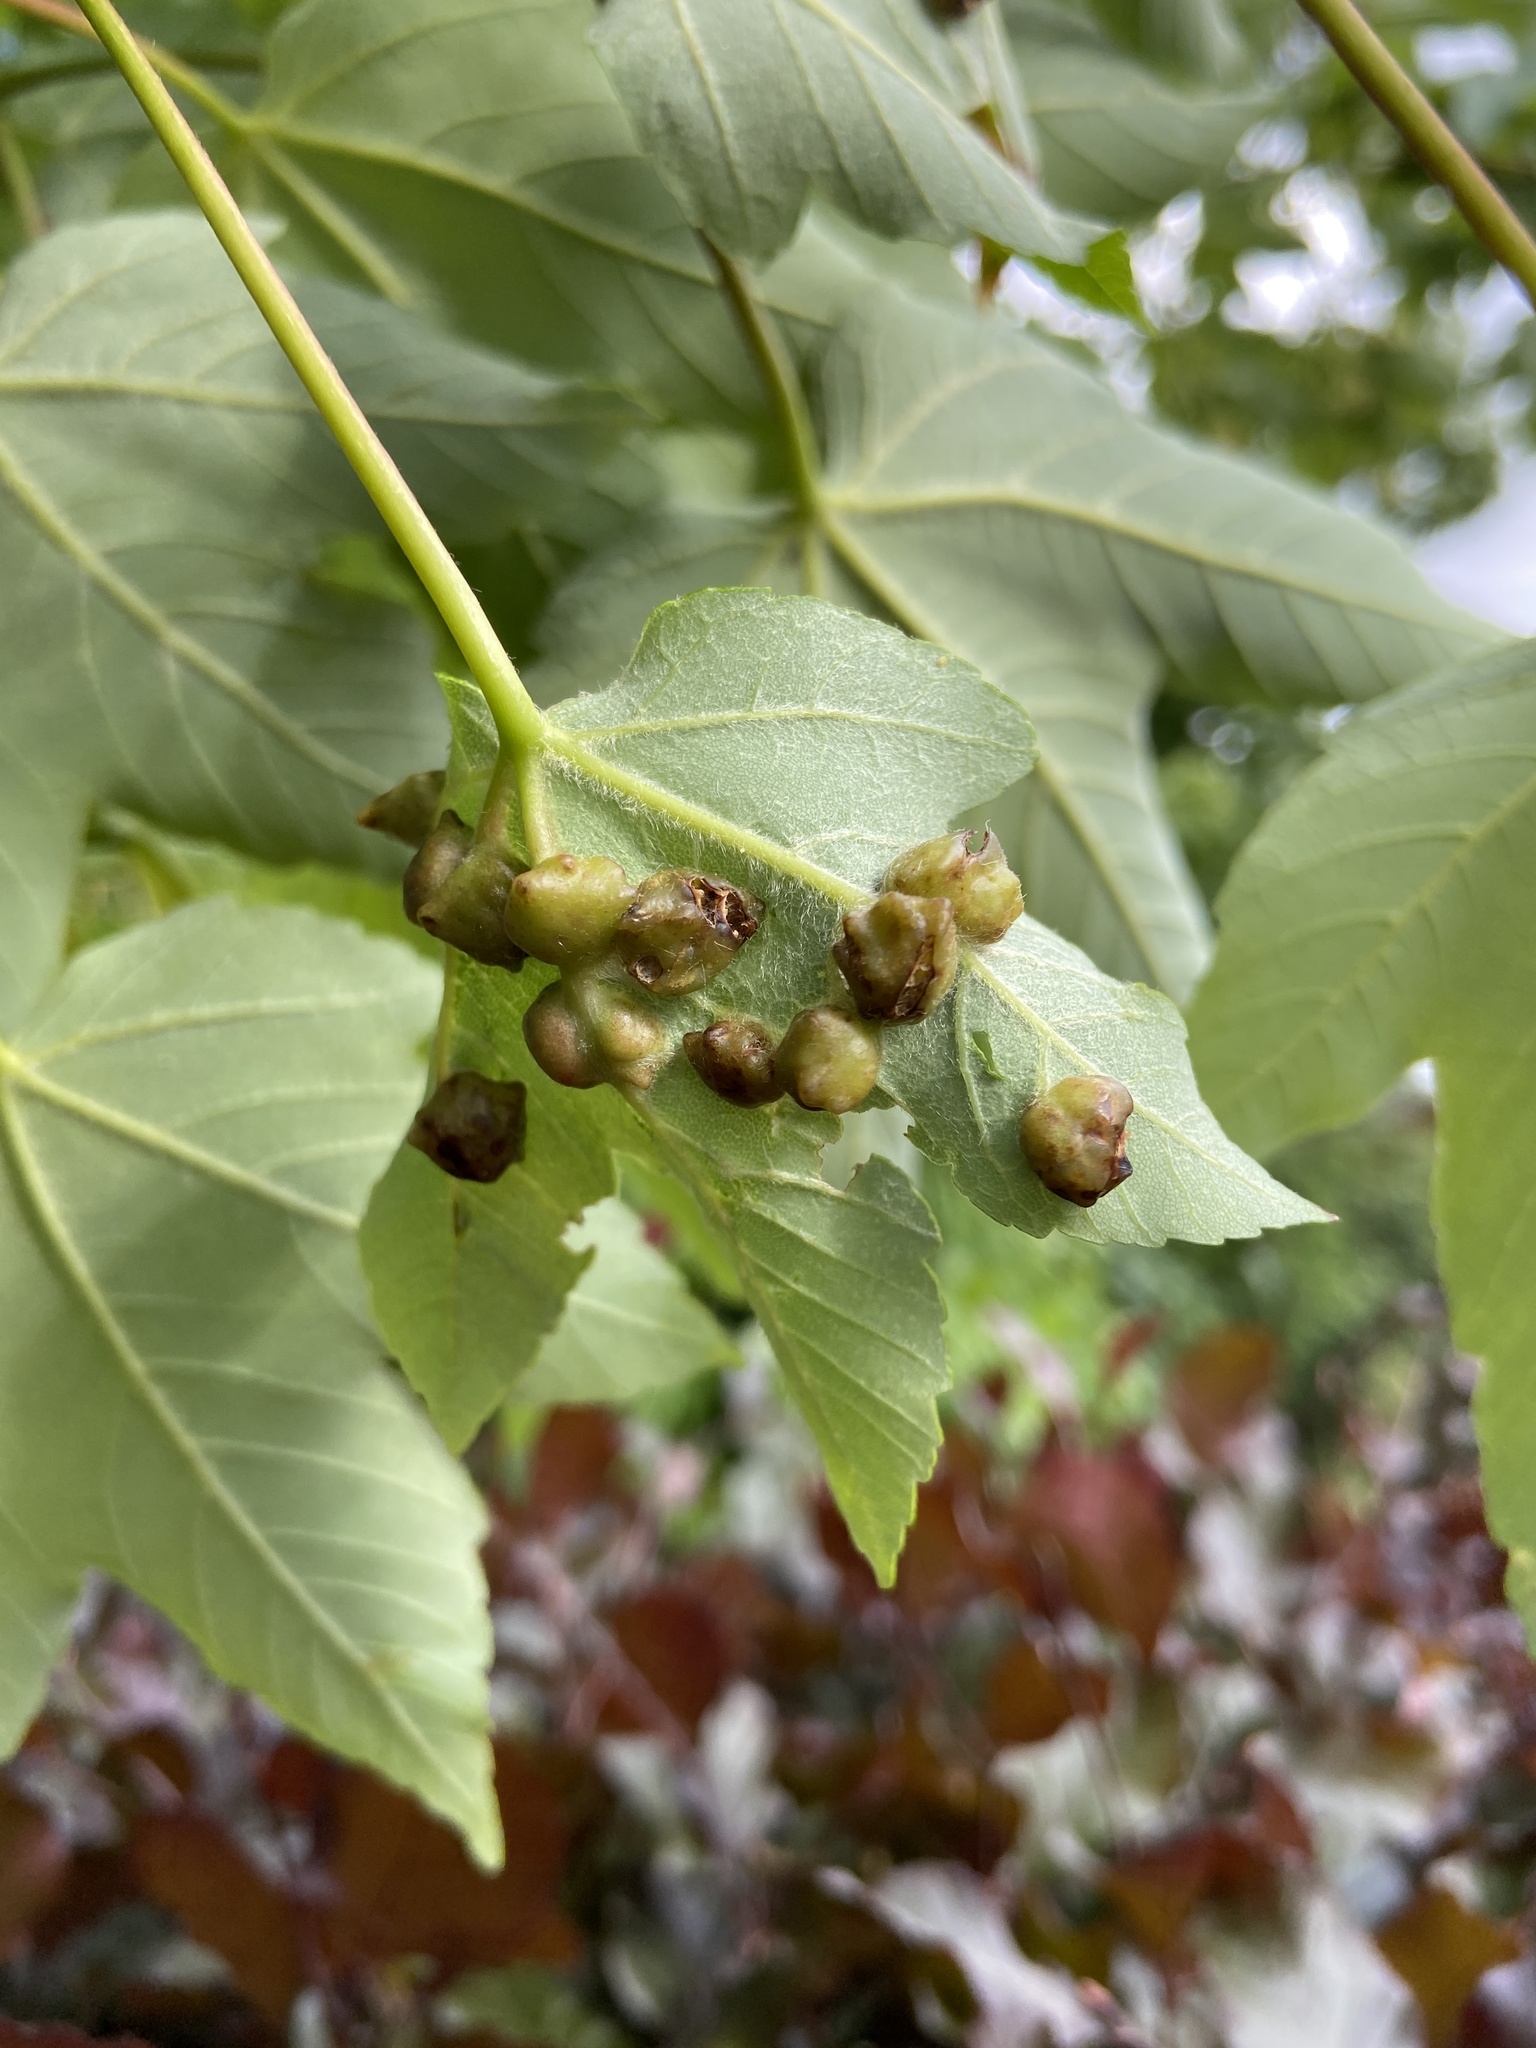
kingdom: Animalia
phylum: Arthropoda
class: Insecta
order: Hymenoptera
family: Eulophidae
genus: Dichatomus
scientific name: Dichatomus acerinus
